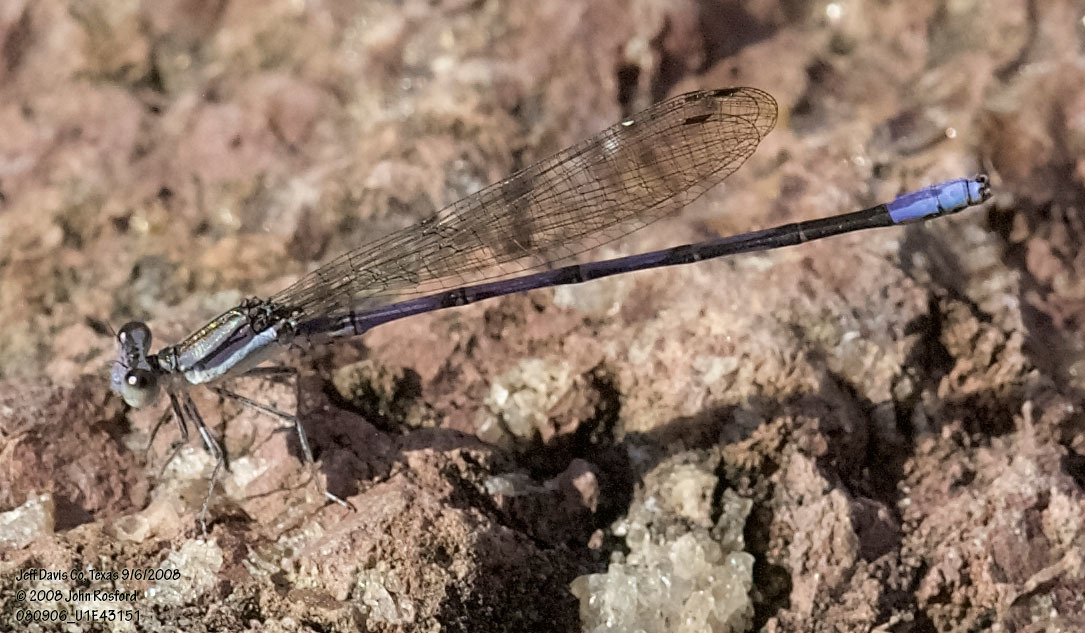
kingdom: Animalia
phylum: Arthropoda
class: Insecta
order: Odonata
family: Coenagrionidae
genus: Argia
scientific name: Argia hinei
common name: Lavender dancer
